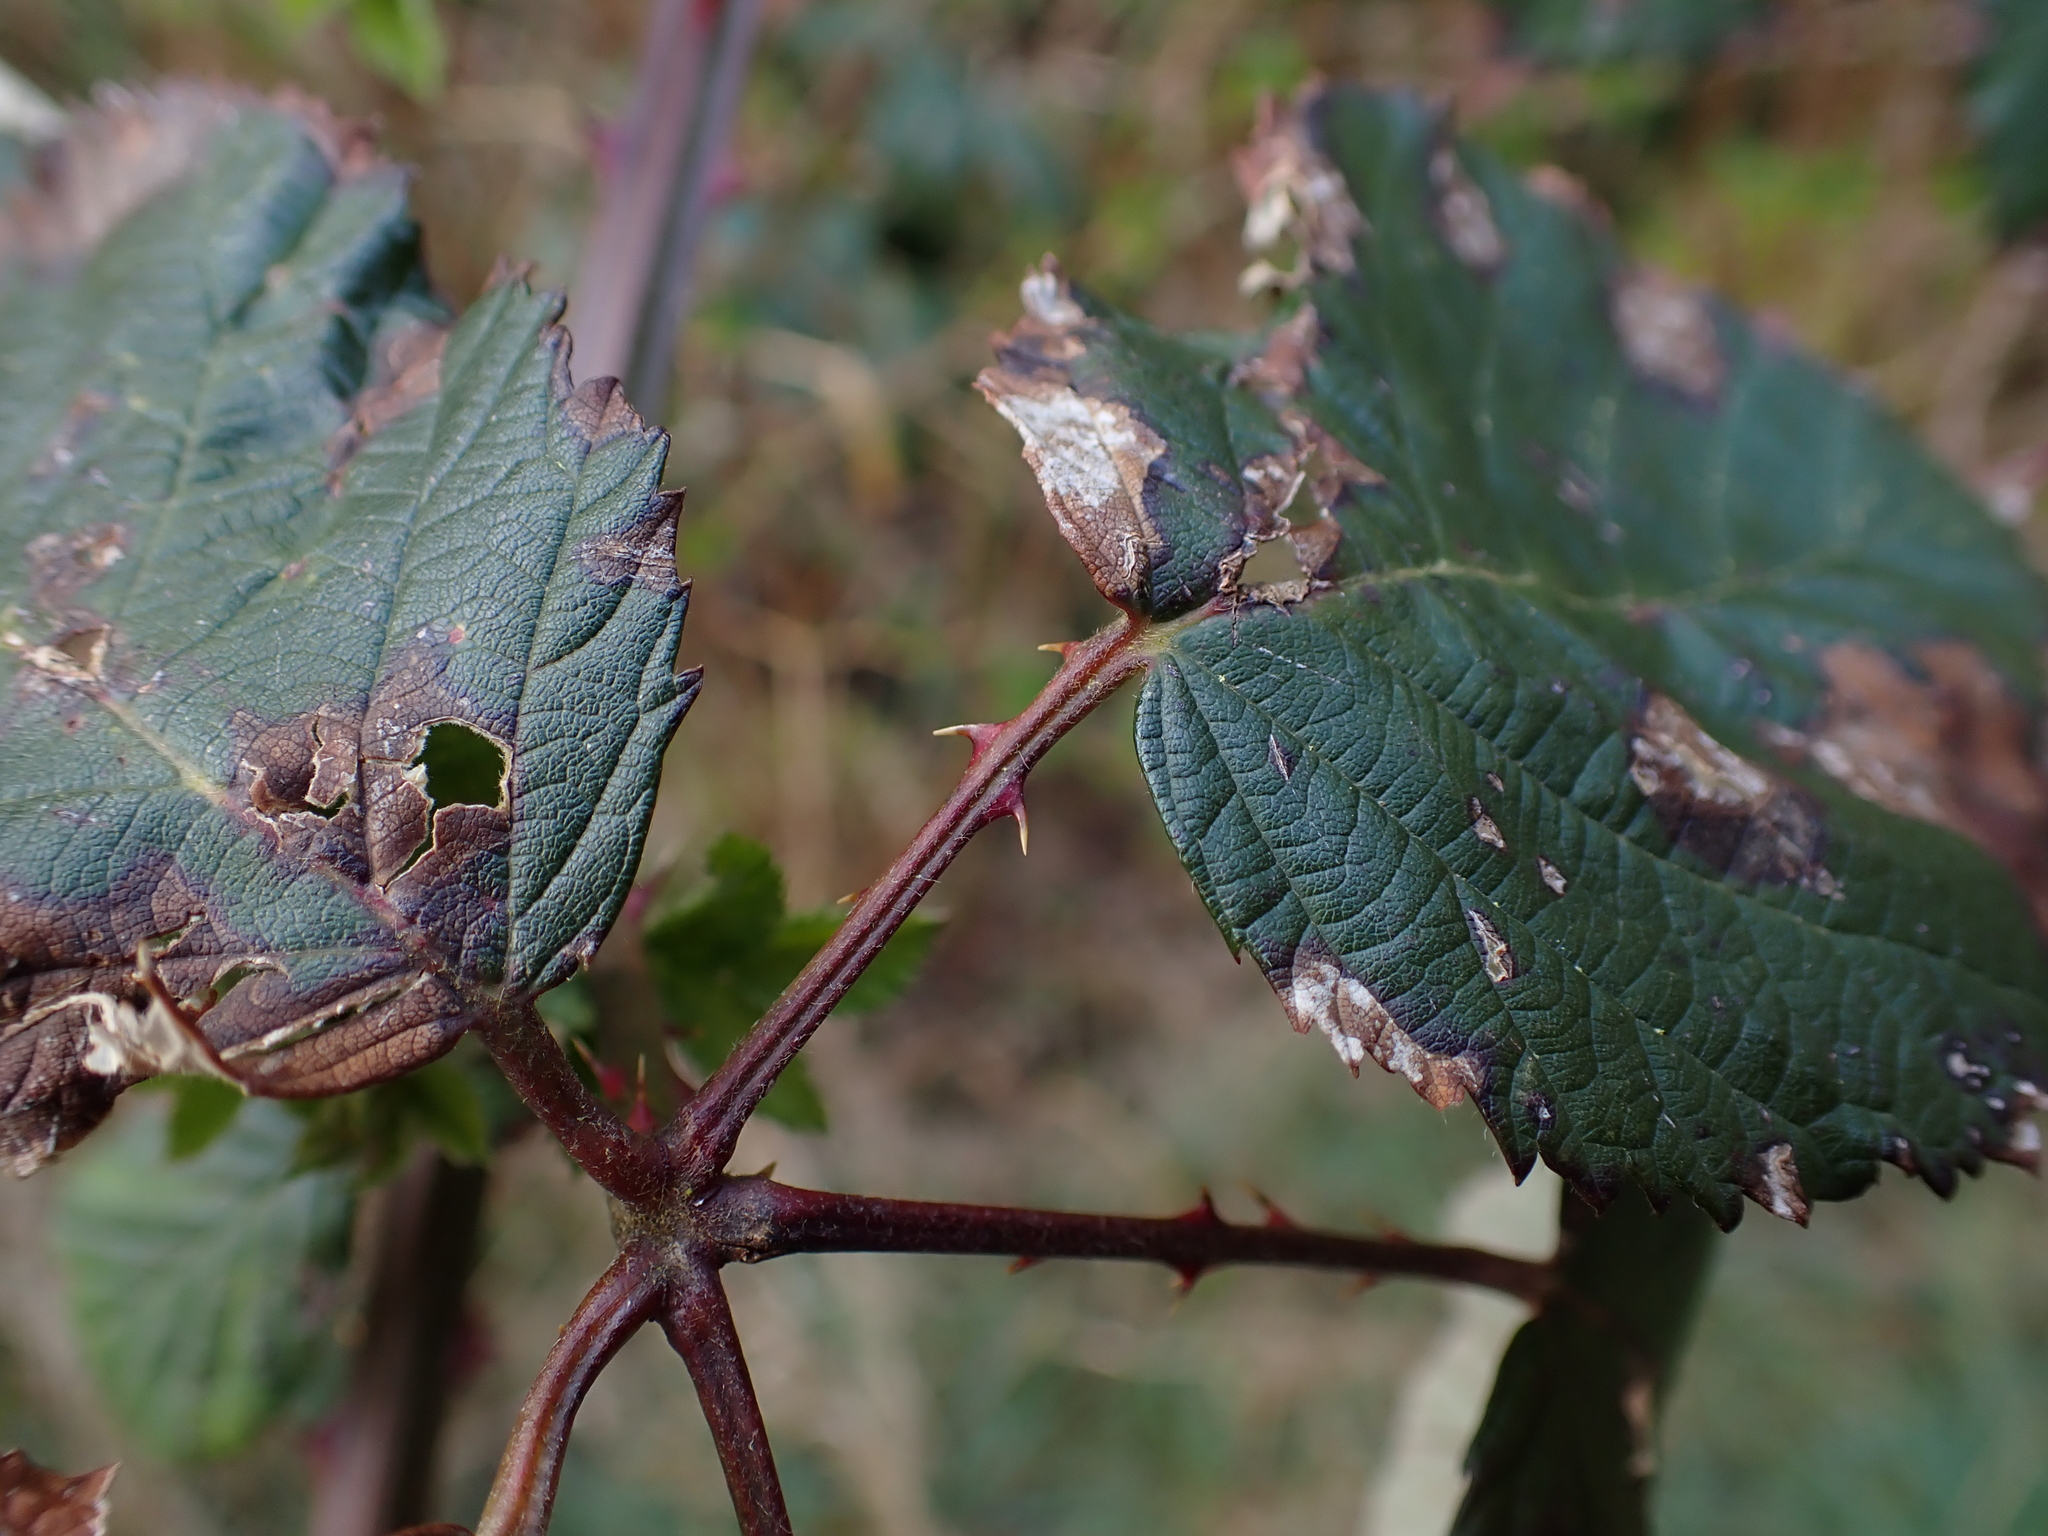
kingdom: Plantae
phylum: Tracheophyta
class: Magnoliopsida
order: Rosales
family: Rosaceae
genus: Rubus
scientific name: Rubus bifrons
